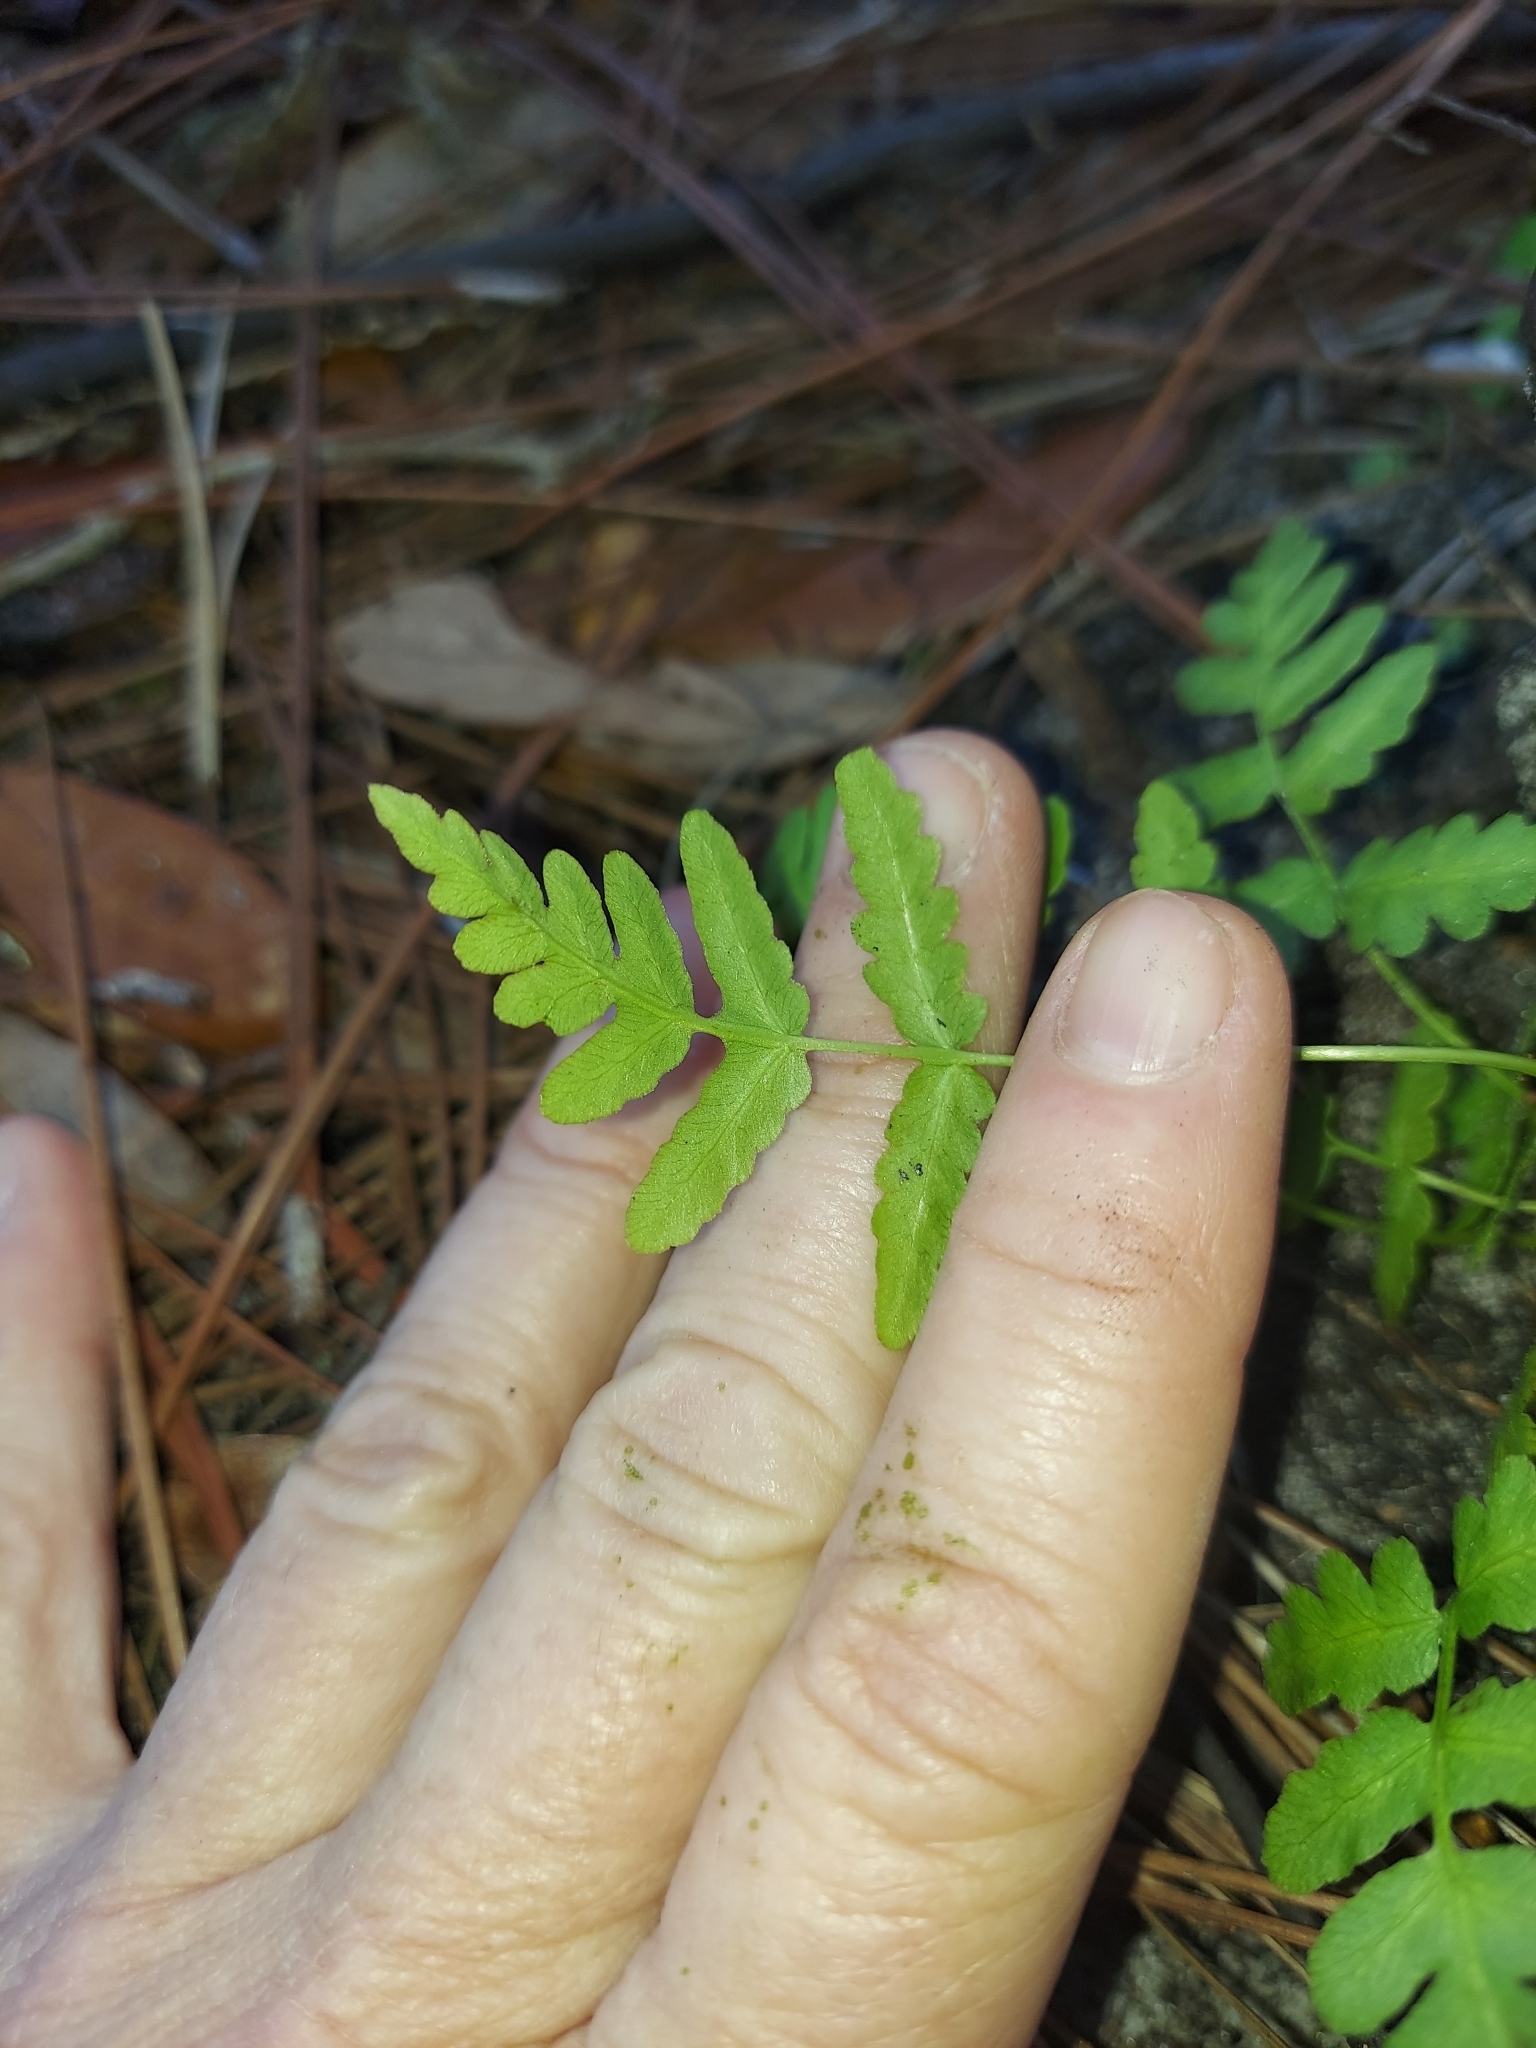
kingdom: Plantae
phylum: Tracheophyta
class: Polypodiopsida
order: Polypodiales
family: Blechnaceae
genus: Anchistea
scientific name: Anchistea virginica
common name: Virginia chain fern
